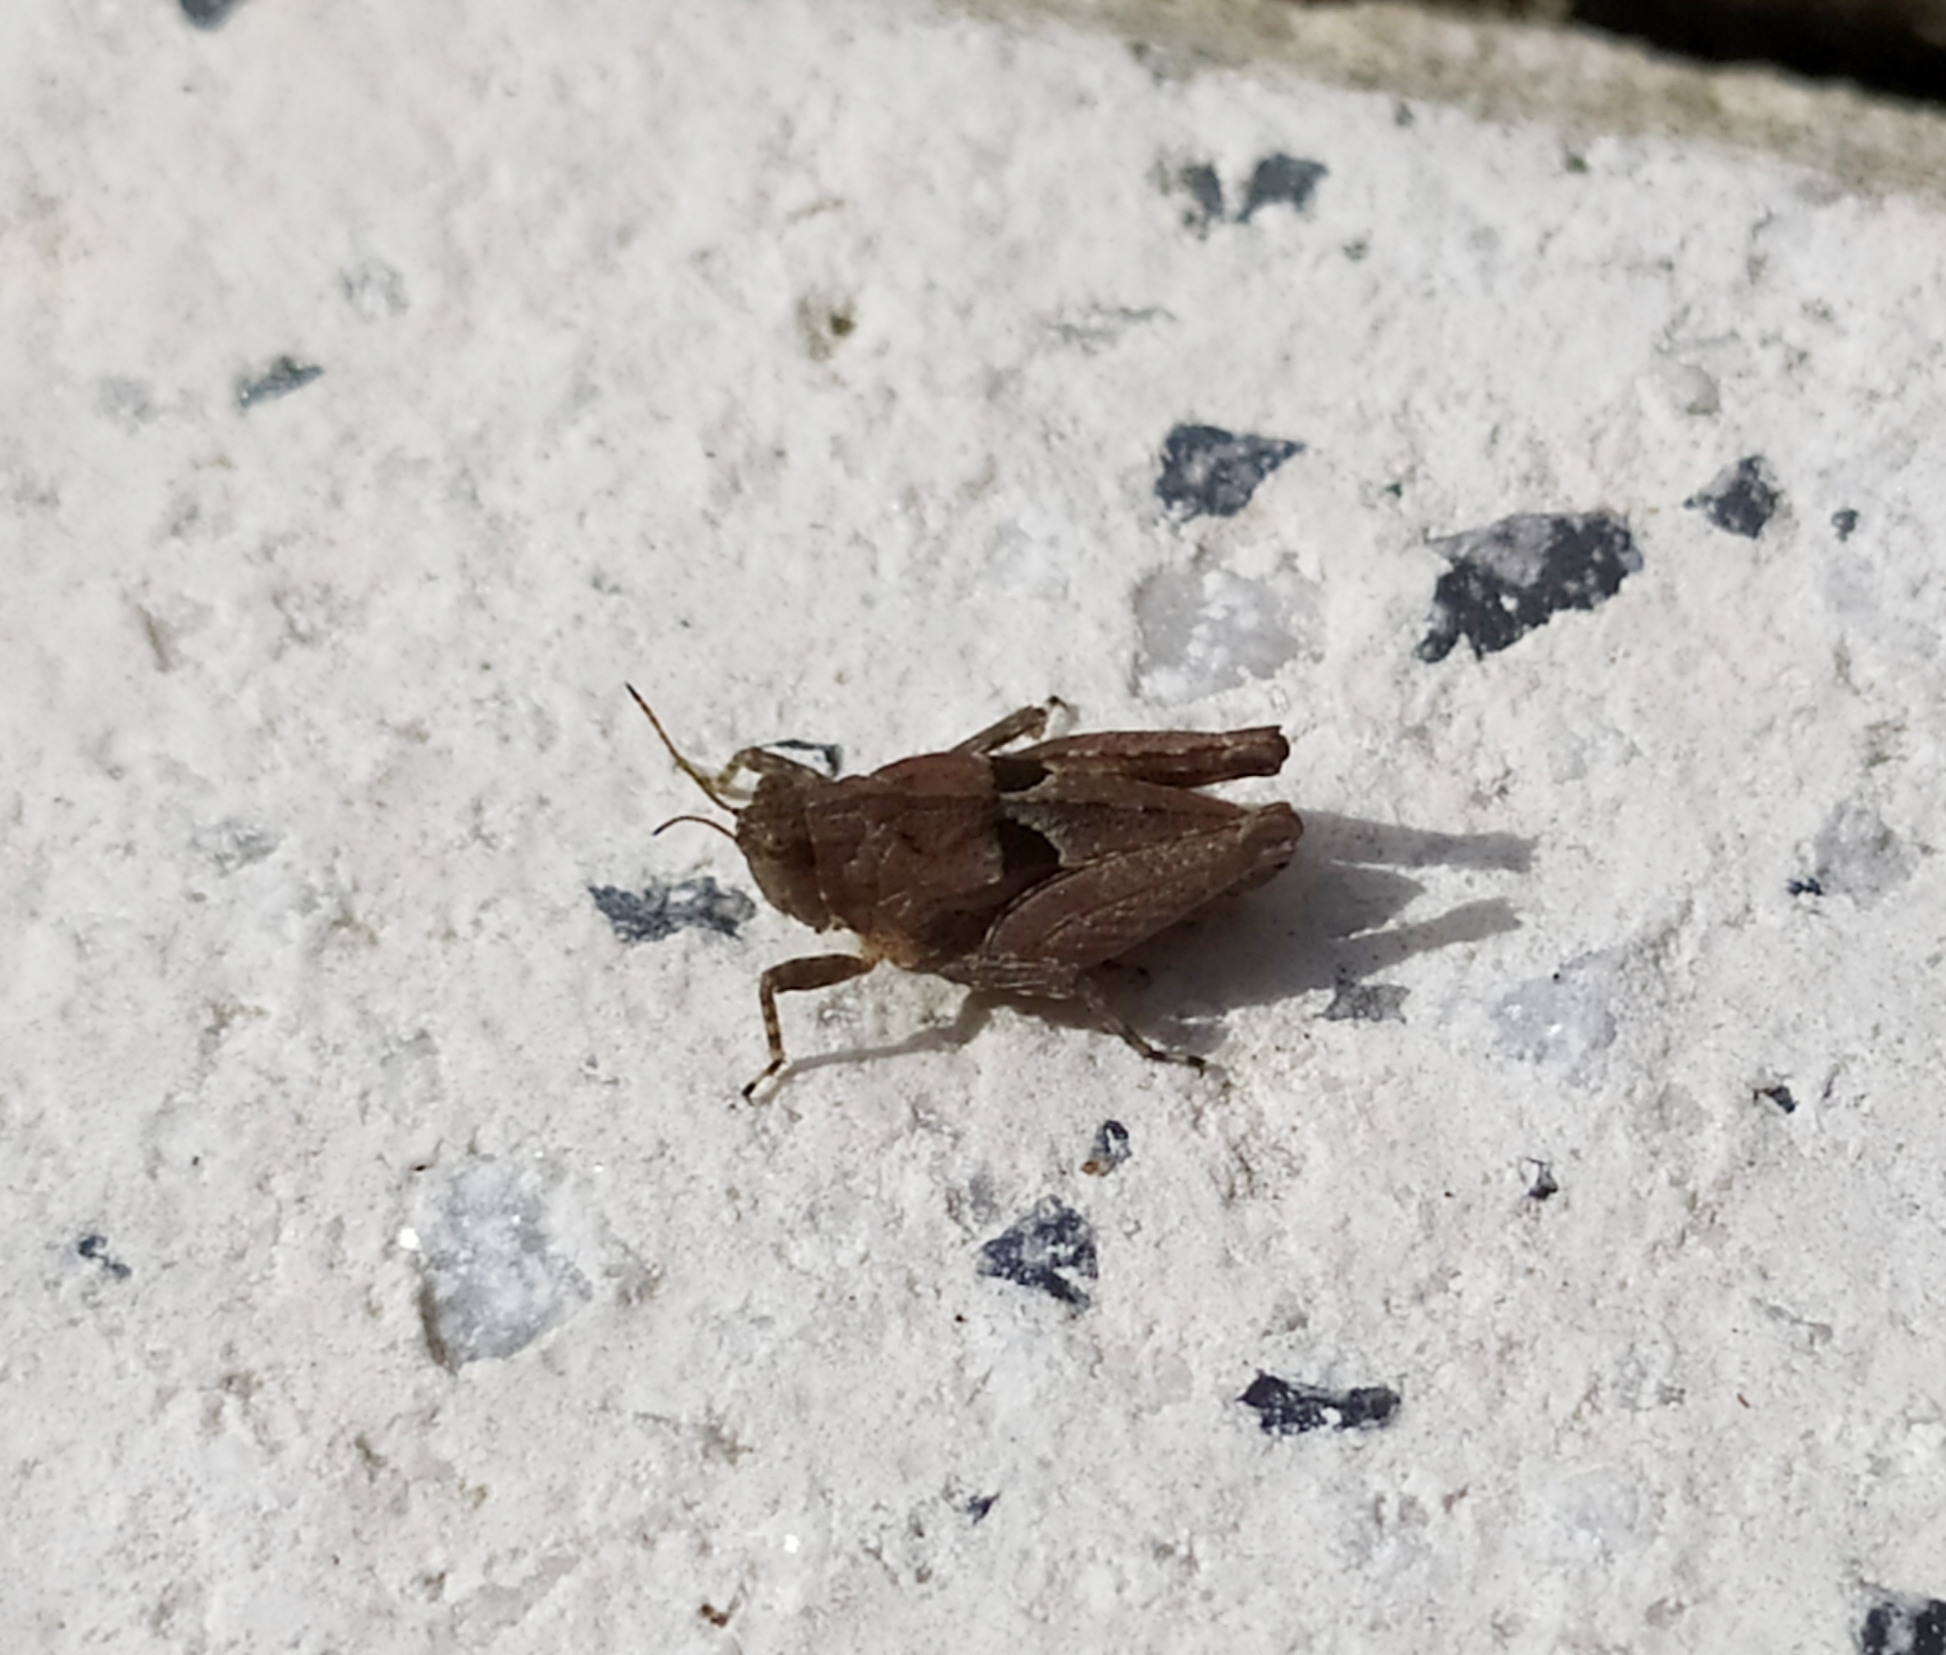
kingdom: Animalia
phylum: Arthropoda
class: Insecta
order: Orthoptera
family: Tetrigidae
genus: Tetrix
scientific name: Tetrix tenuicornis
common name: Long-horned groundhopper
